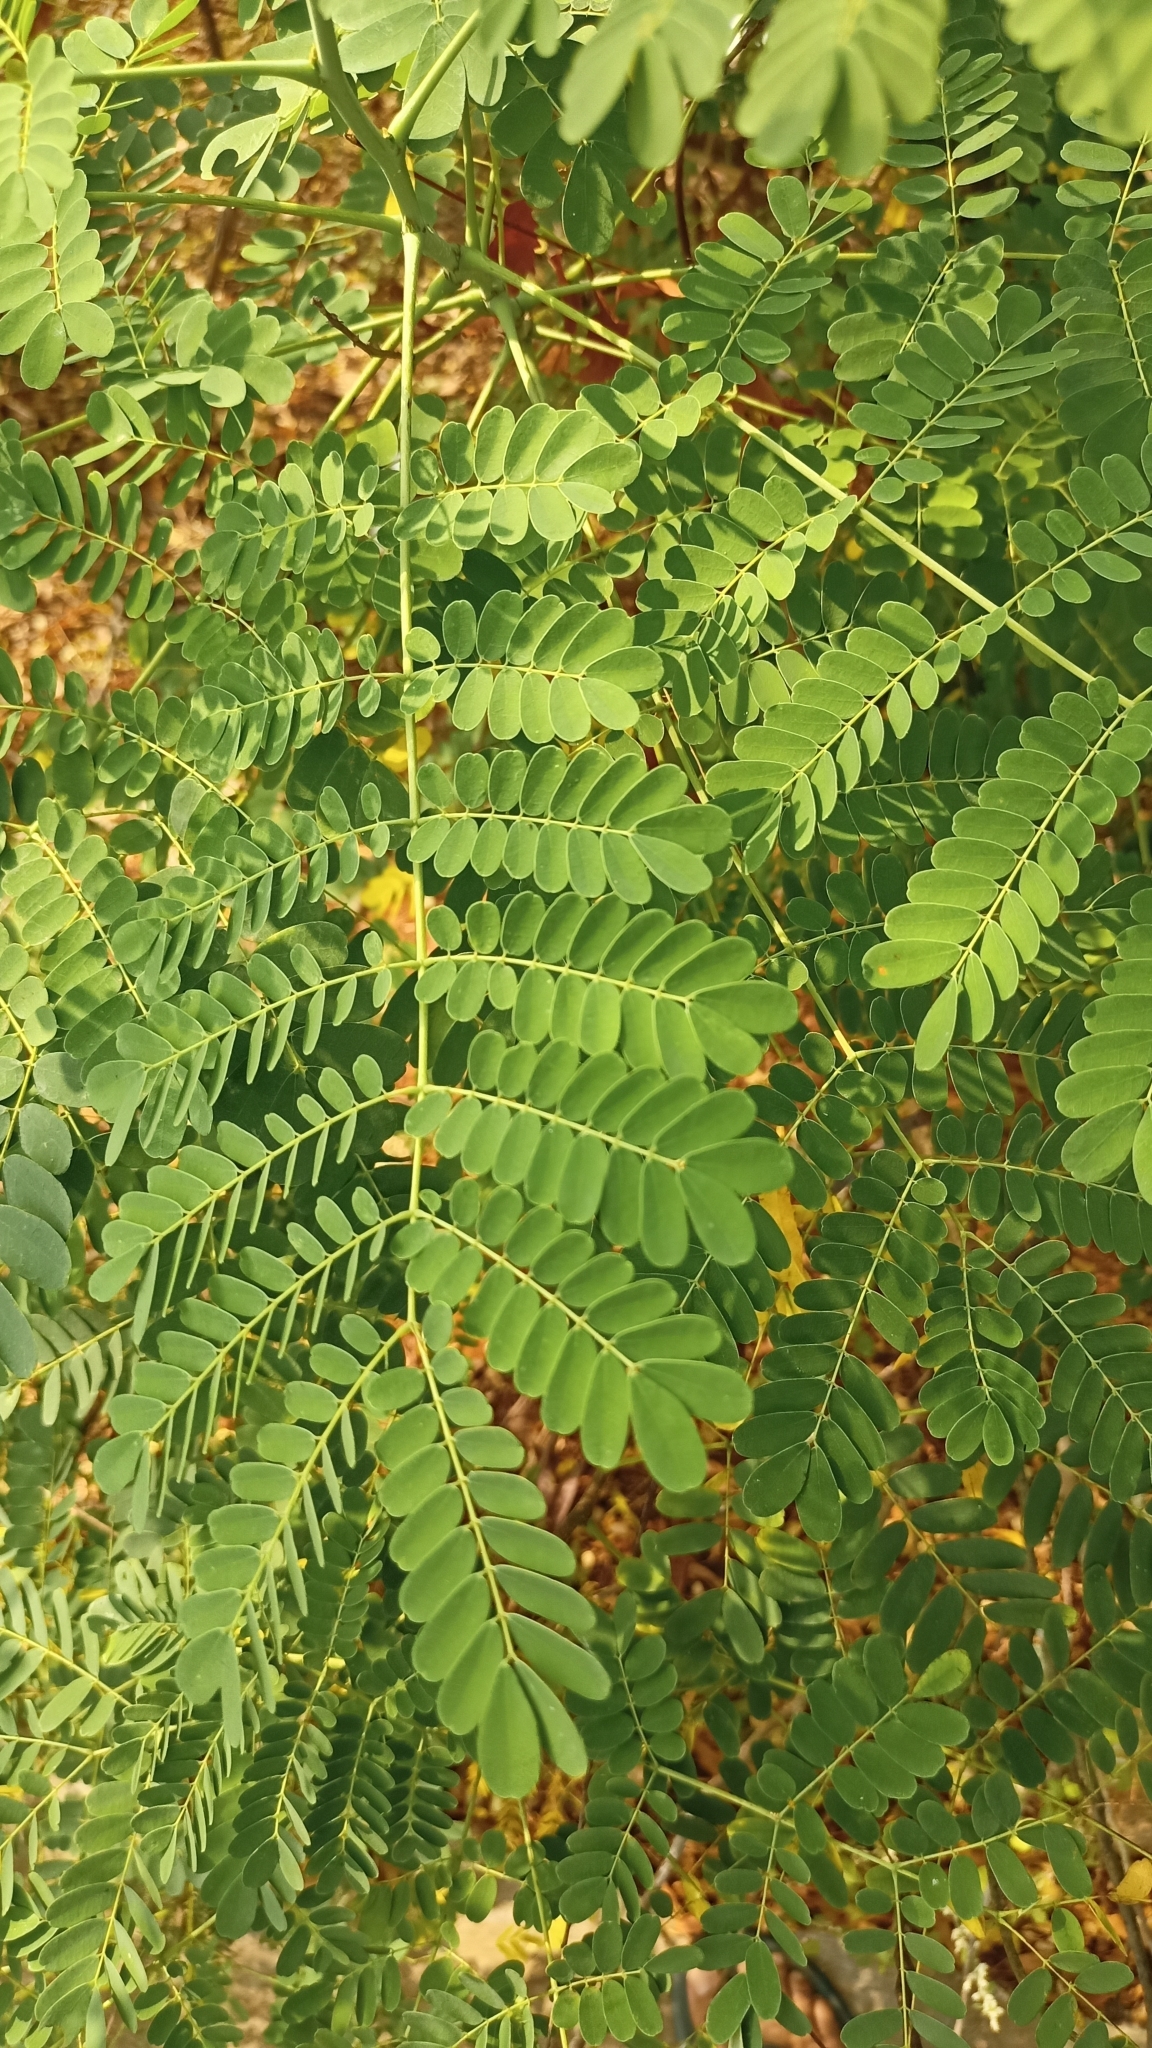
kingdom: Plantae
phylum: Tracheophyta
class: Magnoliopsida
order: Fabales
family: Fabaceae
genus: Caesalpinia
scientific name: Caesalpinia pulcherrima
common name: Pride-of-barbados
